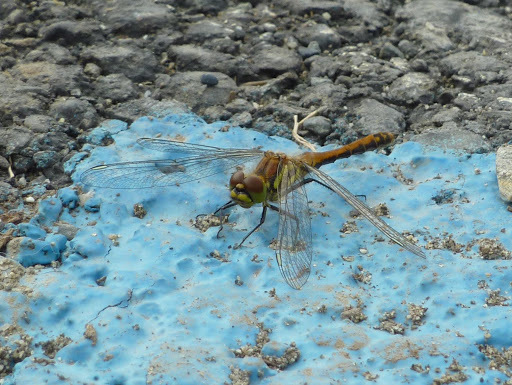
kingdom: Animalia
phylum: Arthropoda
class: Insecta
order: Odonata
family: Libellulidae
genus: Sympetrum
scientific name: Sympetrum danae
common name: Black darter
